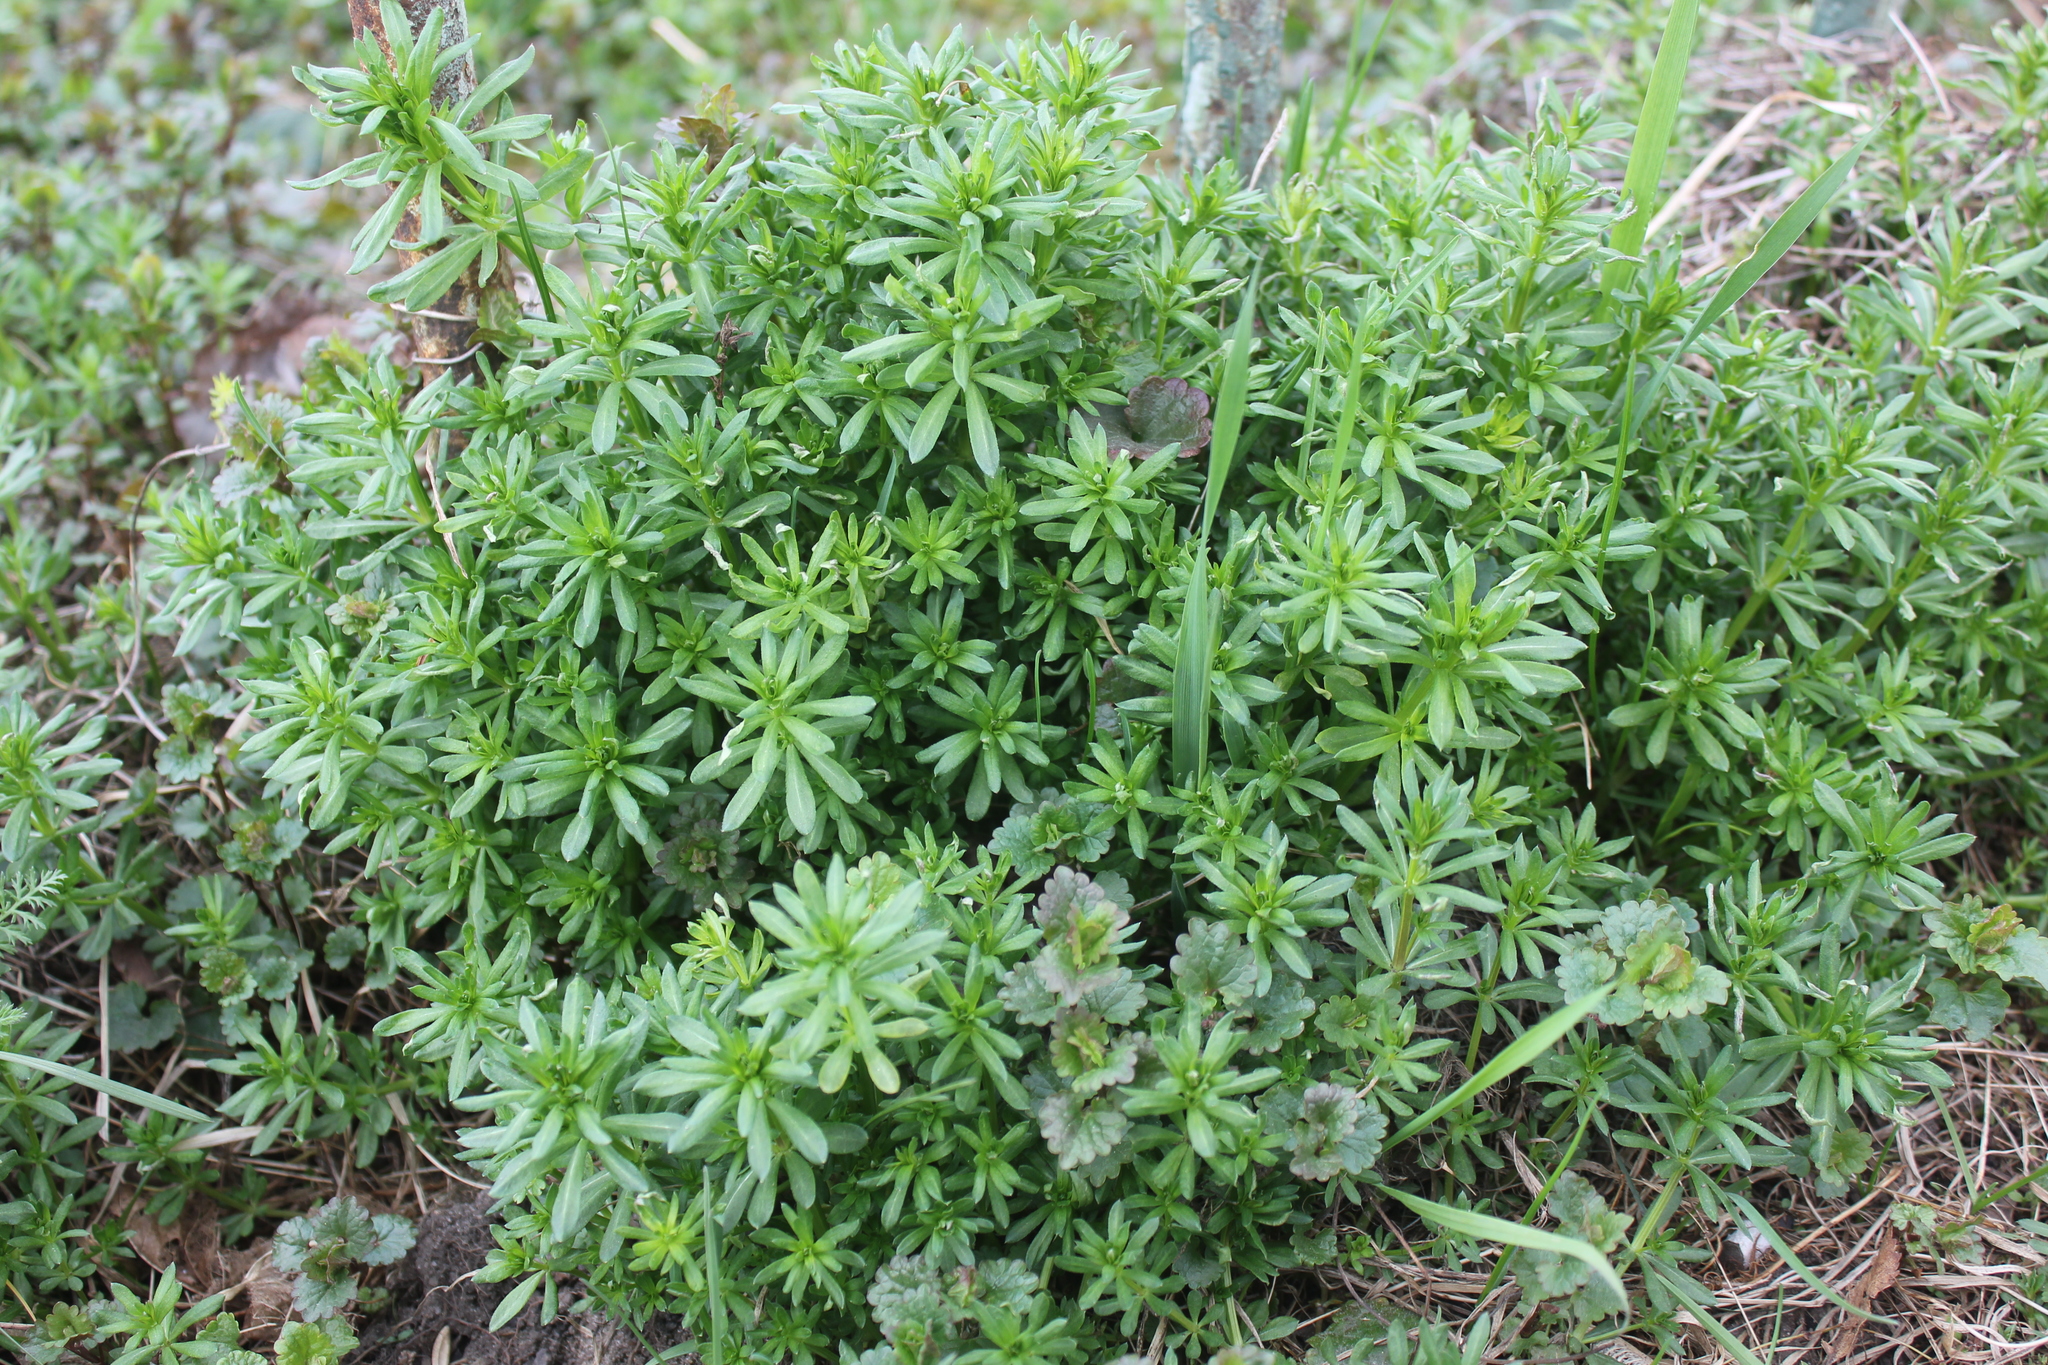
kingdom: Plantae
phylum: Tracheophyta
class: Magnoliopsida
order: Gentianales
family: Rubiaceae
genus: Galium
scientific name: Galium mollugo
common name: Hedge bedstraw
